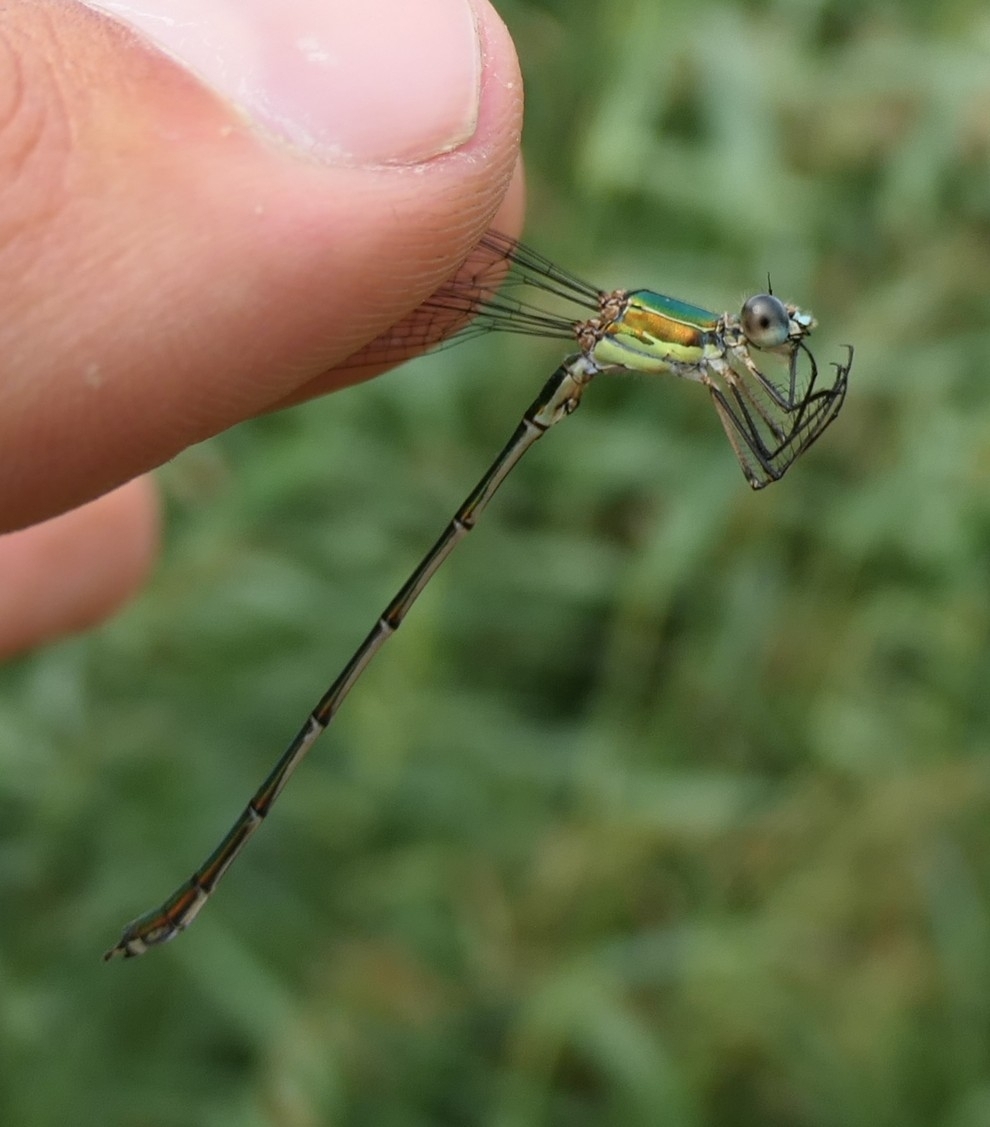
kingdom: Animalia
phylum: Arthropoda
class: Insecta
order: Odonata
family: Lestidae
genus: Chalcolestes
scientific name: Chalcolestes viridis
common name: Green emerald damselfly
